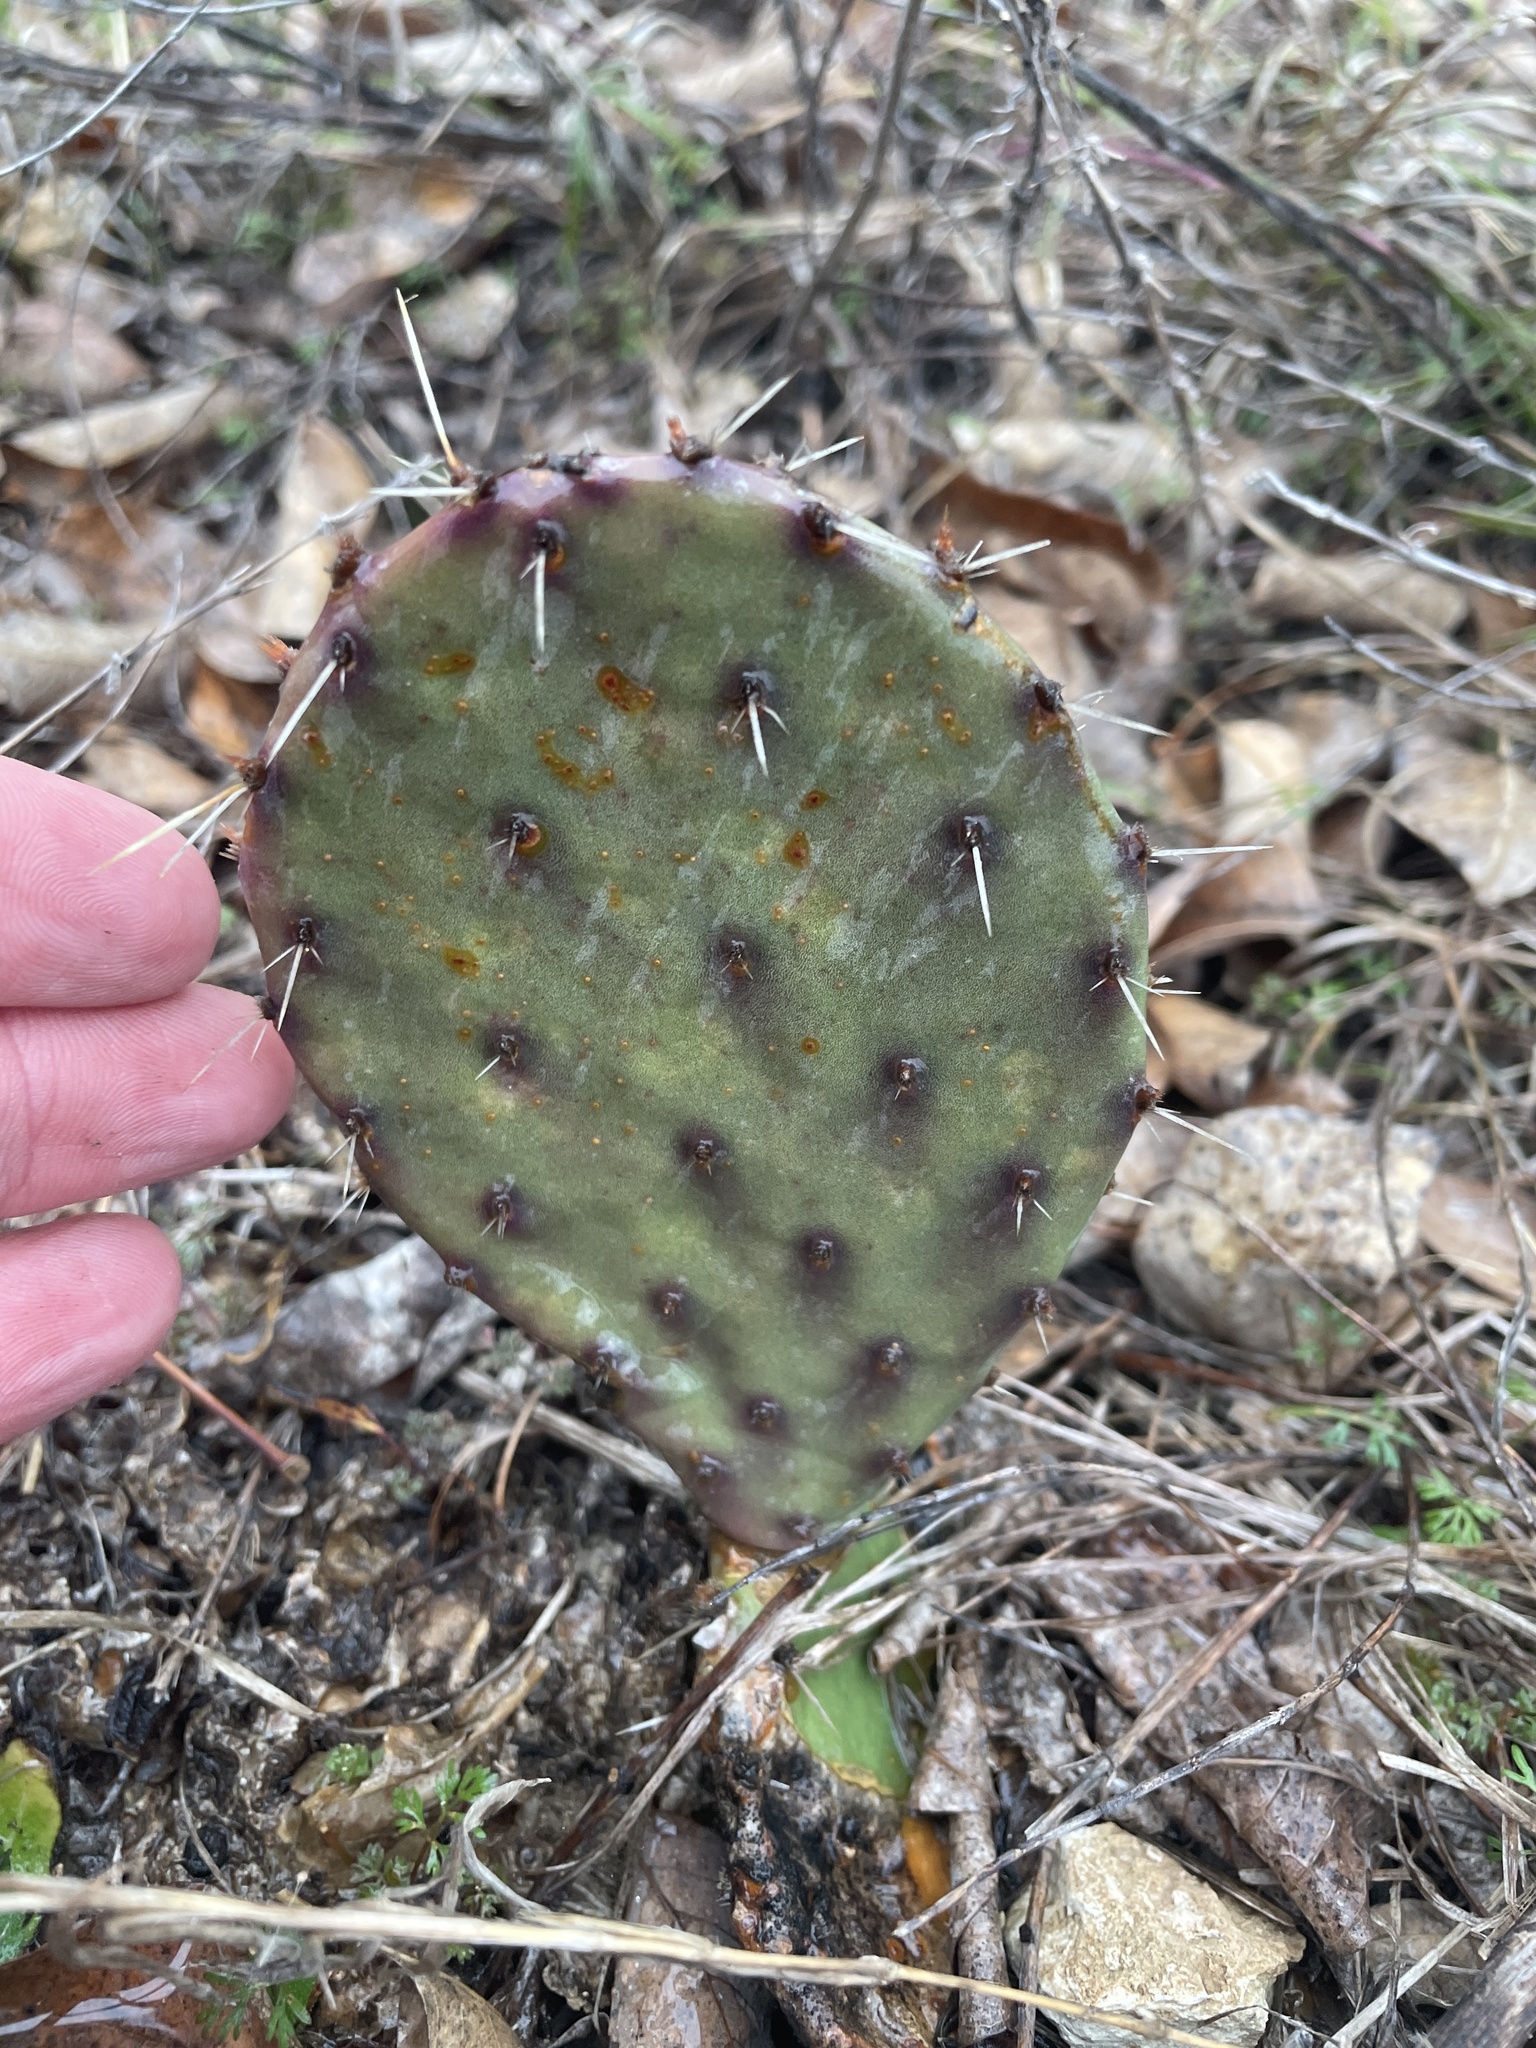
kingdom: Plantae
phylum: Tracheophyta
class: Magnoliopsida
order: Caryophyllales
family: Cactaceae
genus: Opuntia
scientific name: Opuntia phaeacantha
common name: New mexico prickly-pear
